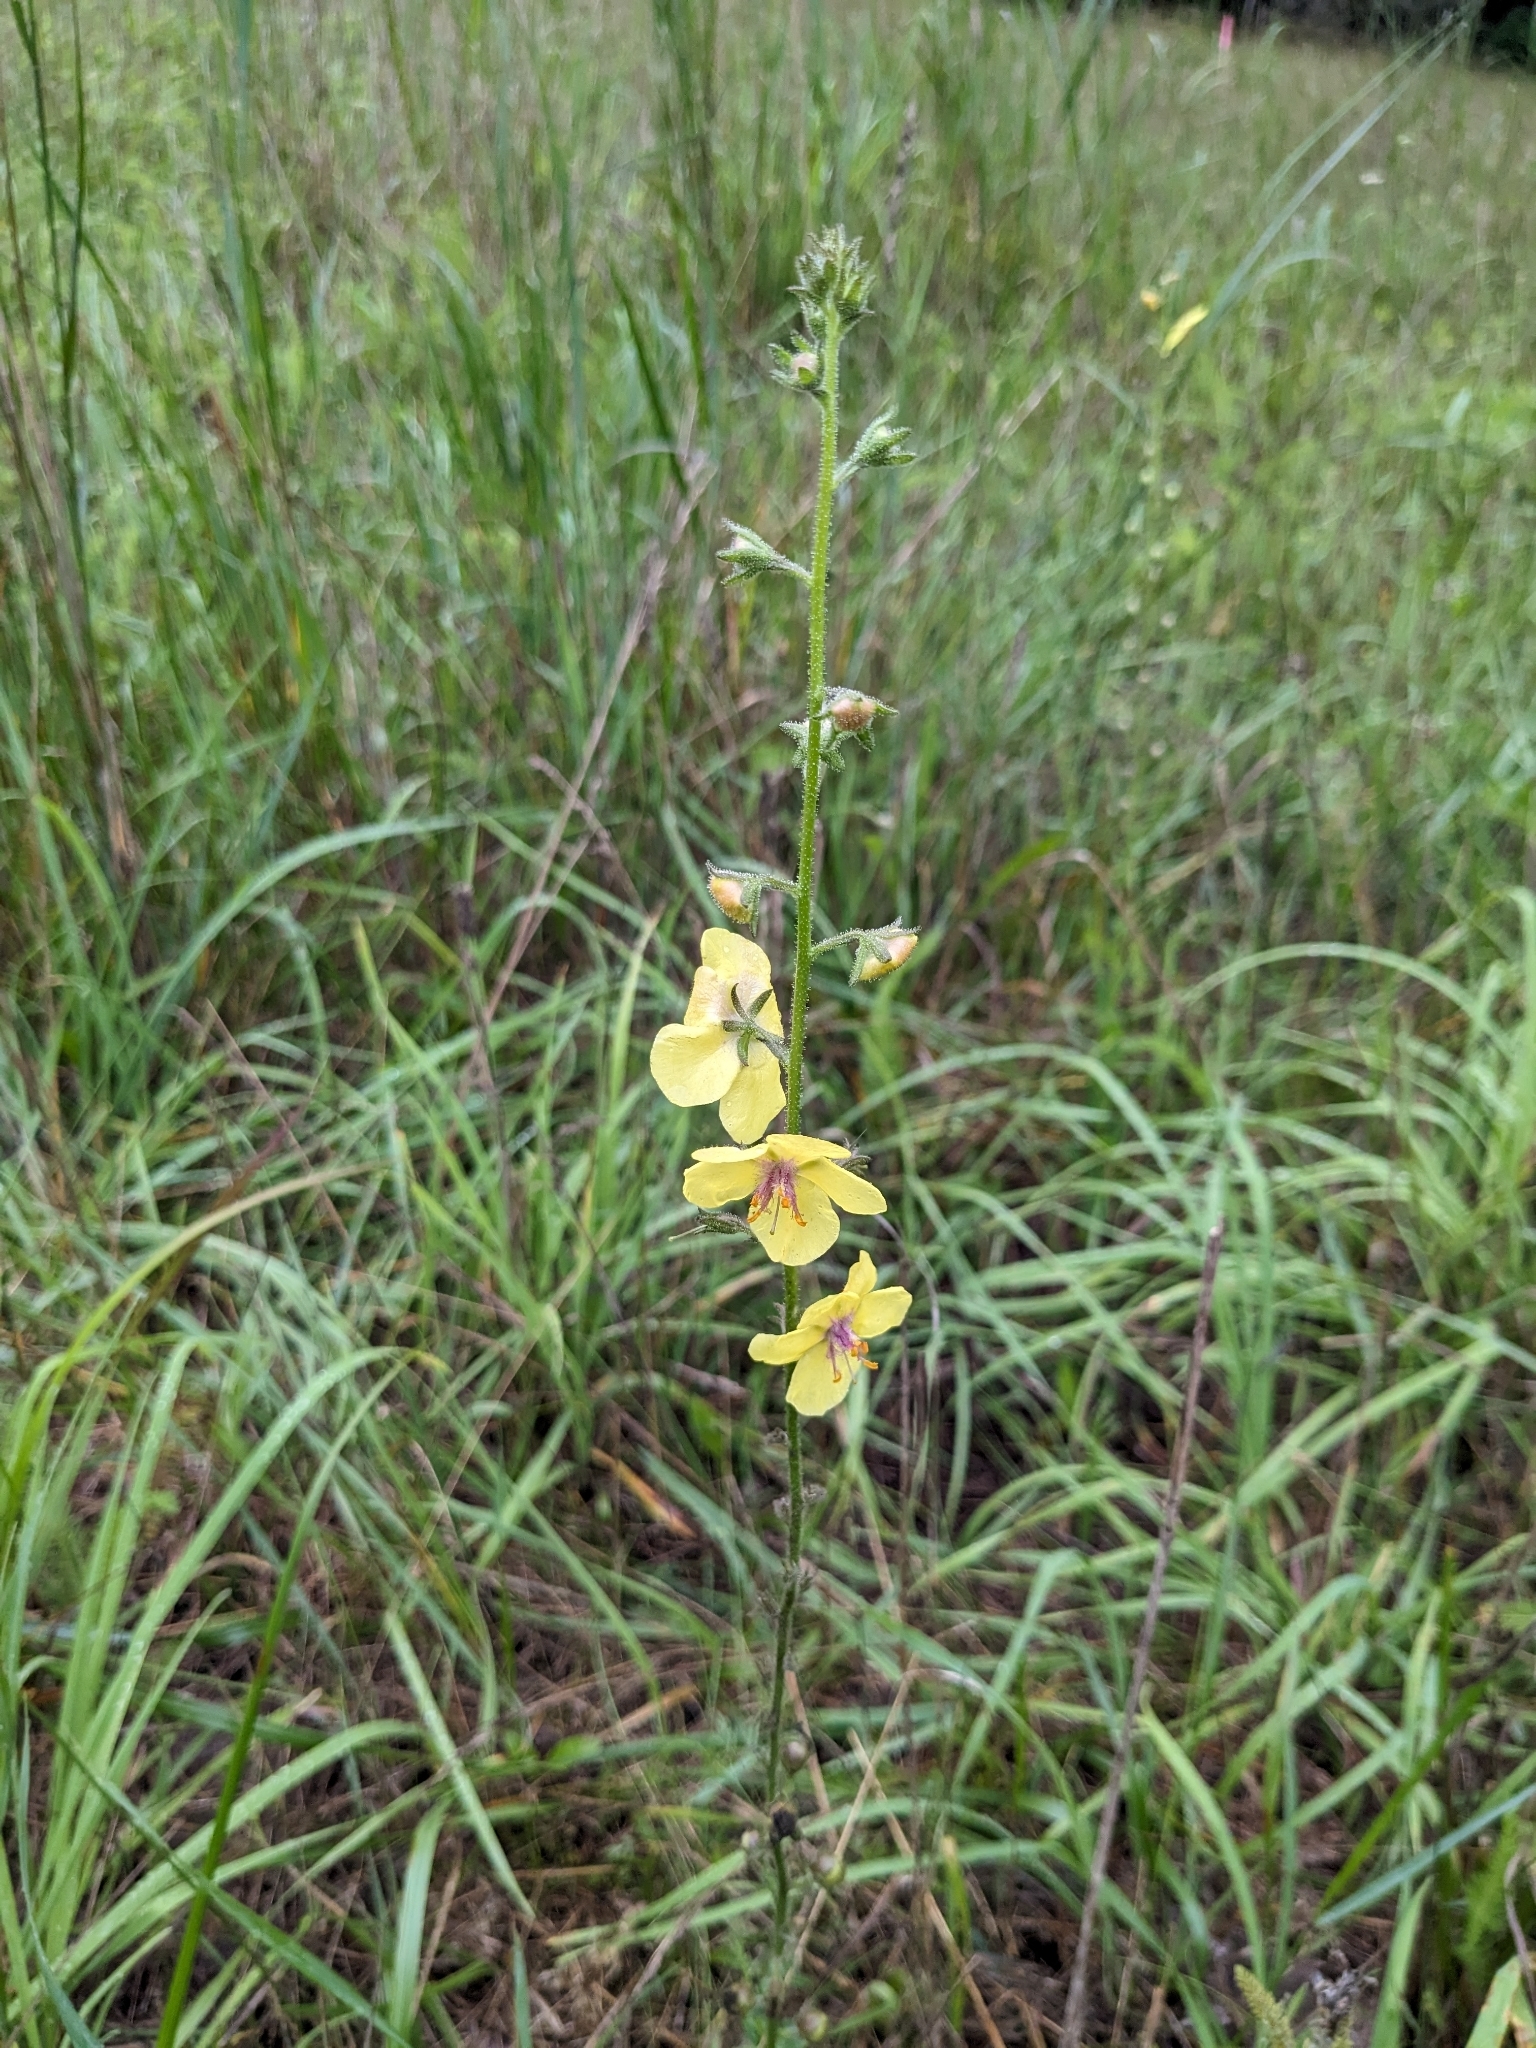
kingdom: Plantae
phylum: Tracheophyta
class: Magnoliopsida
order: Lamiales
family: Scrophulariaceae
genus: Verbascum
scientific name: Verbascum blattaria
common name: Moth mullein
